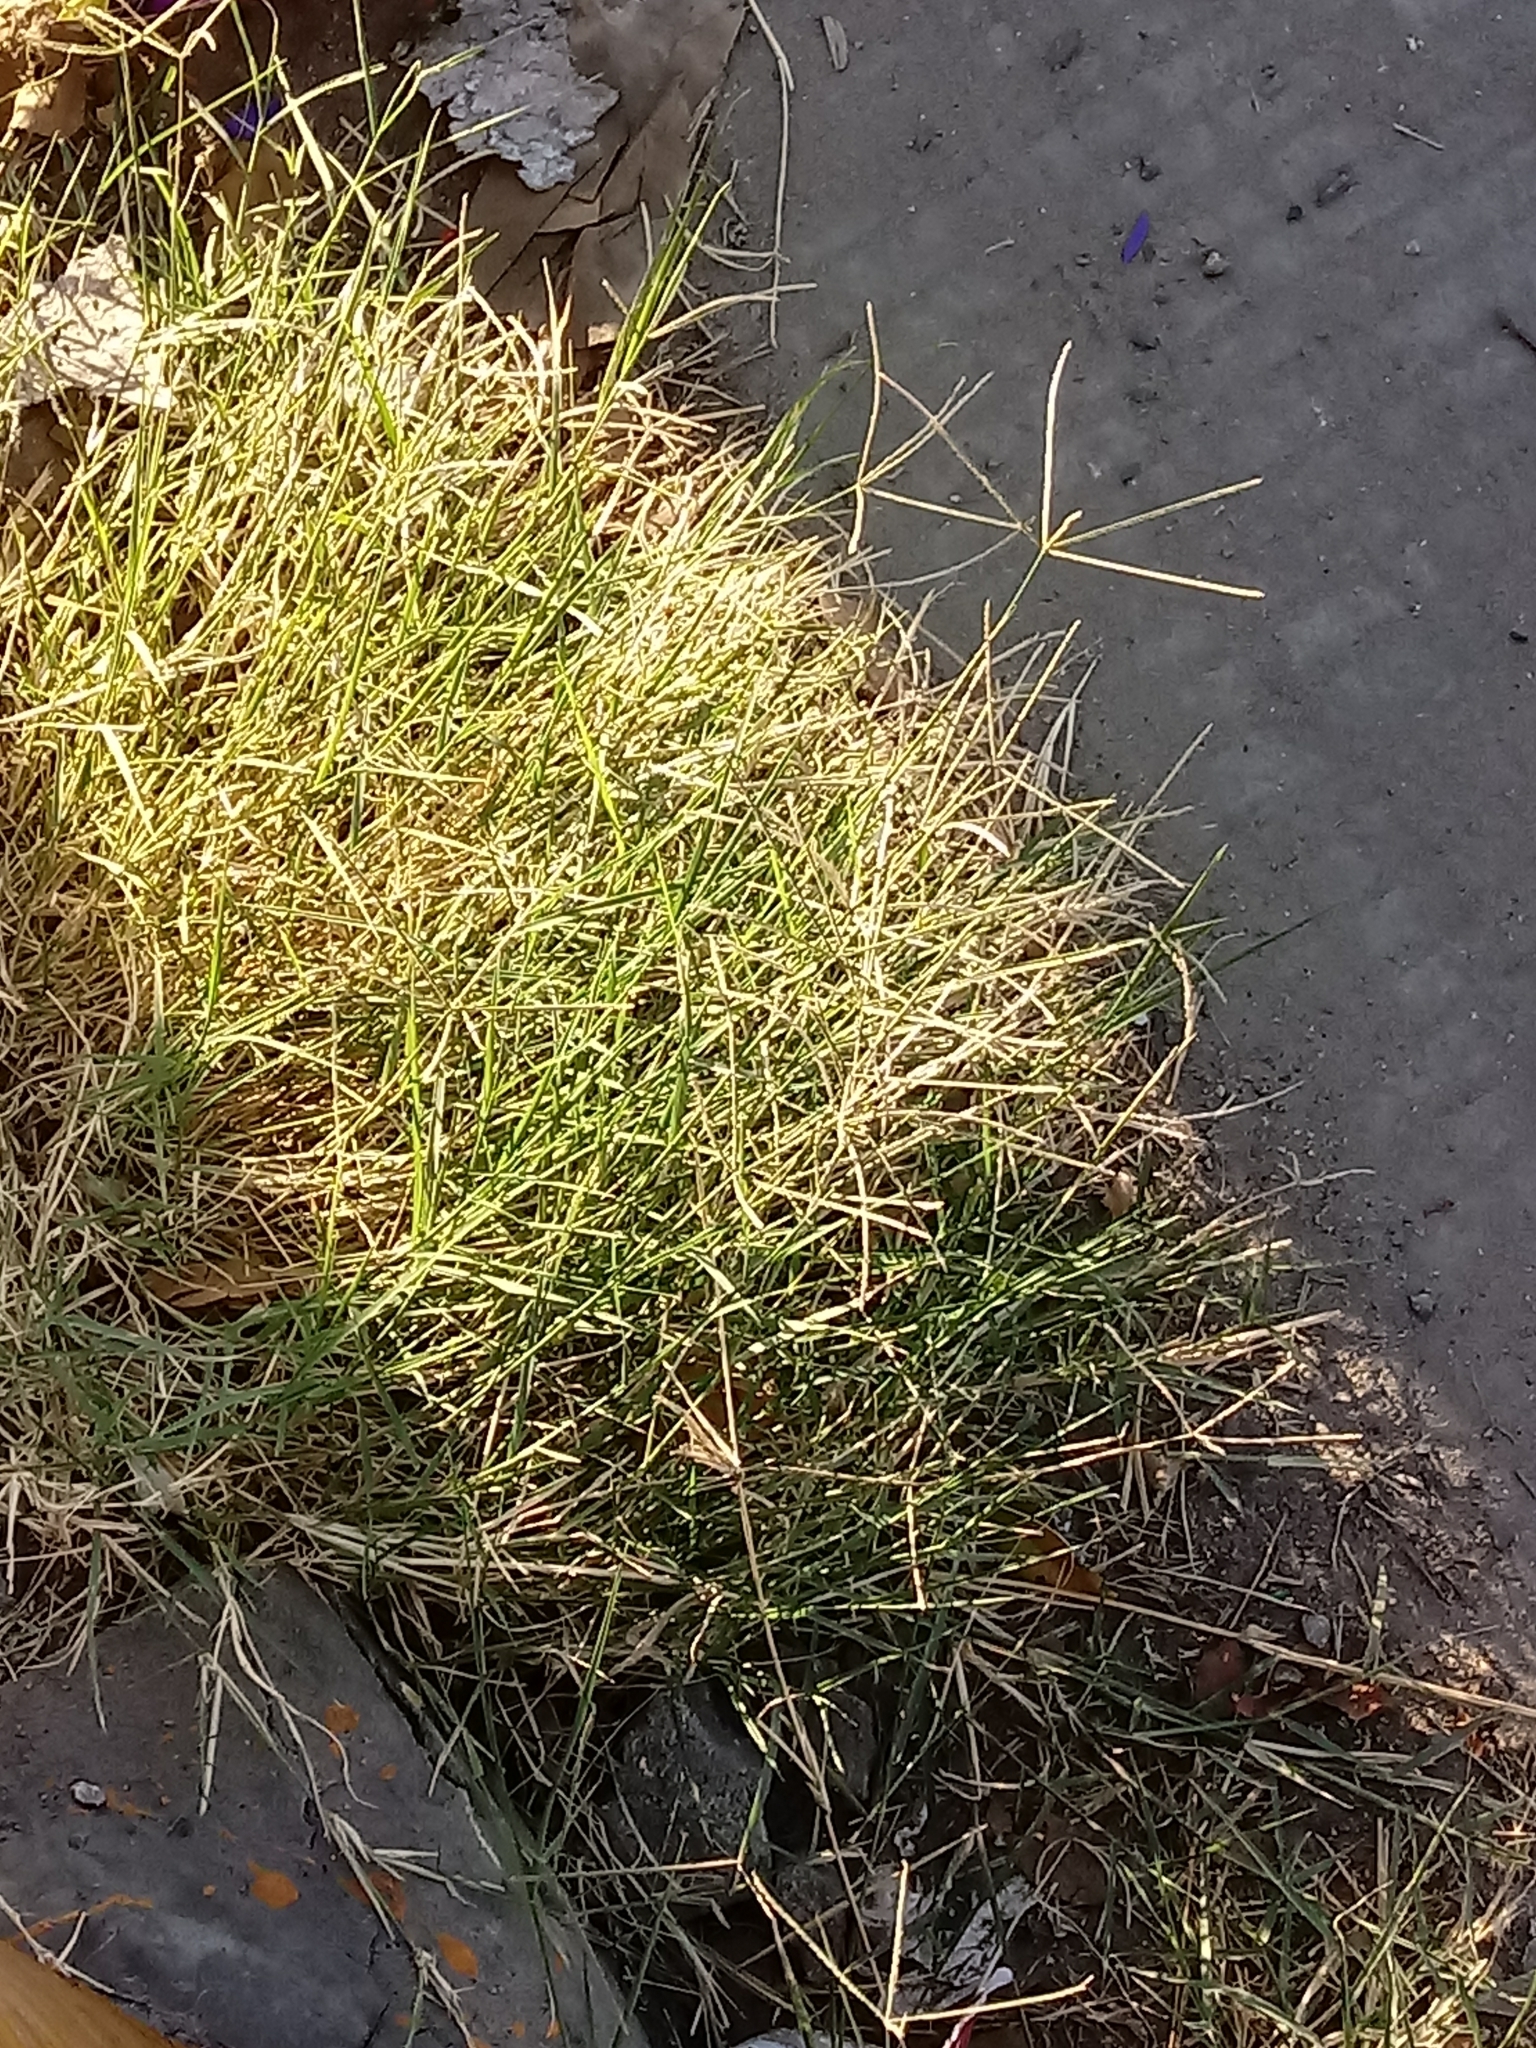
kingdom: Plantae
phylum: Tracheophyta
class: Liliopsida
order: Poales
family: Poaceae
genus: Cynodon
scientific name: Cynodon dactylon
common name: Bermuda grass
